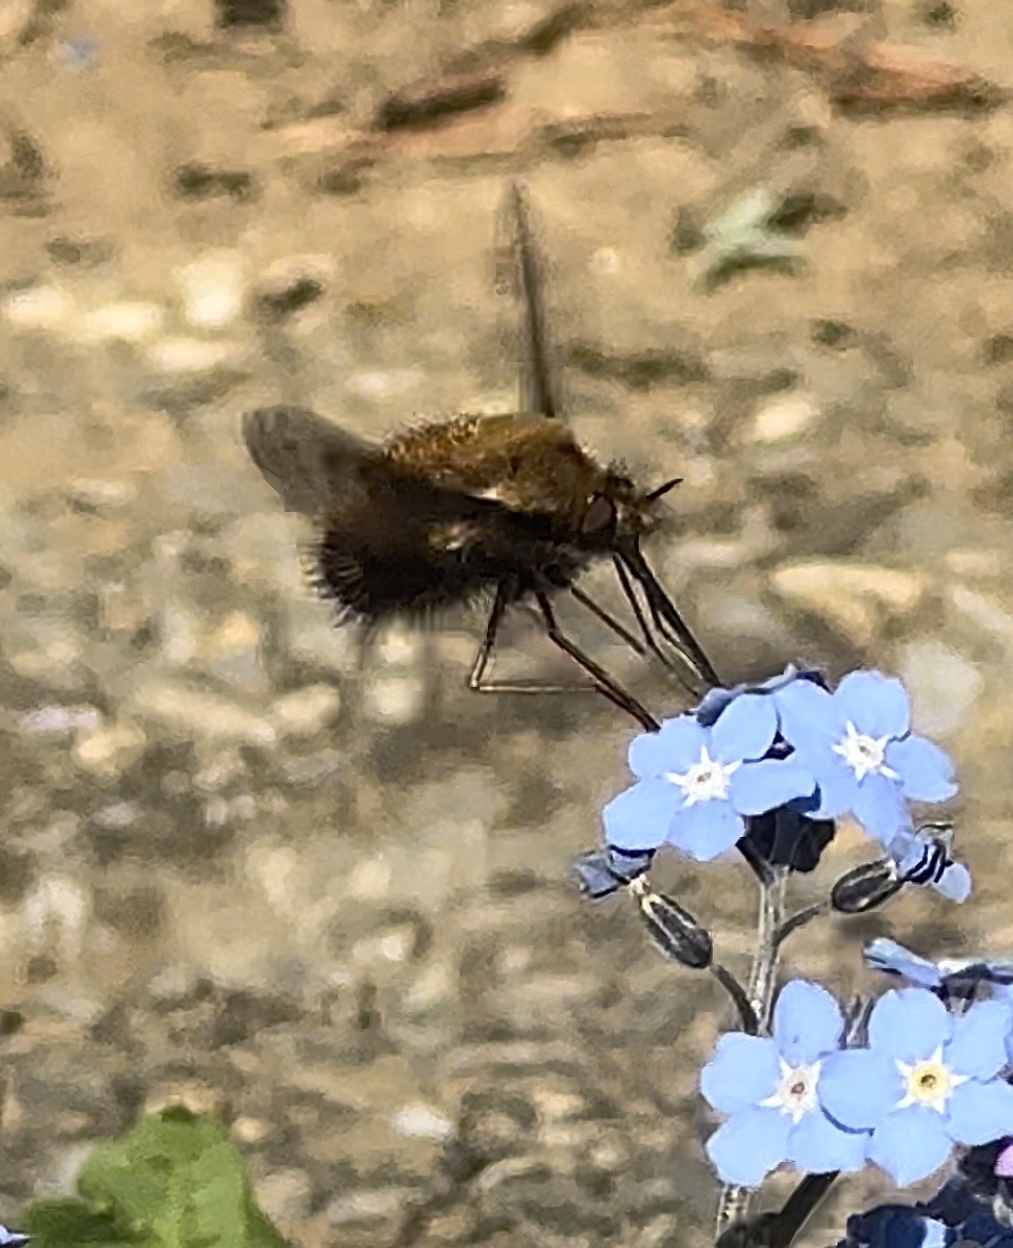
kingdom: Animalia
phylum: Arthropoda
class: Insecta
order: Diptera
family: Bombyliidae
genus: Bombylius
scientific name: Bombylius discolor
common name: Dotted bee-fly
